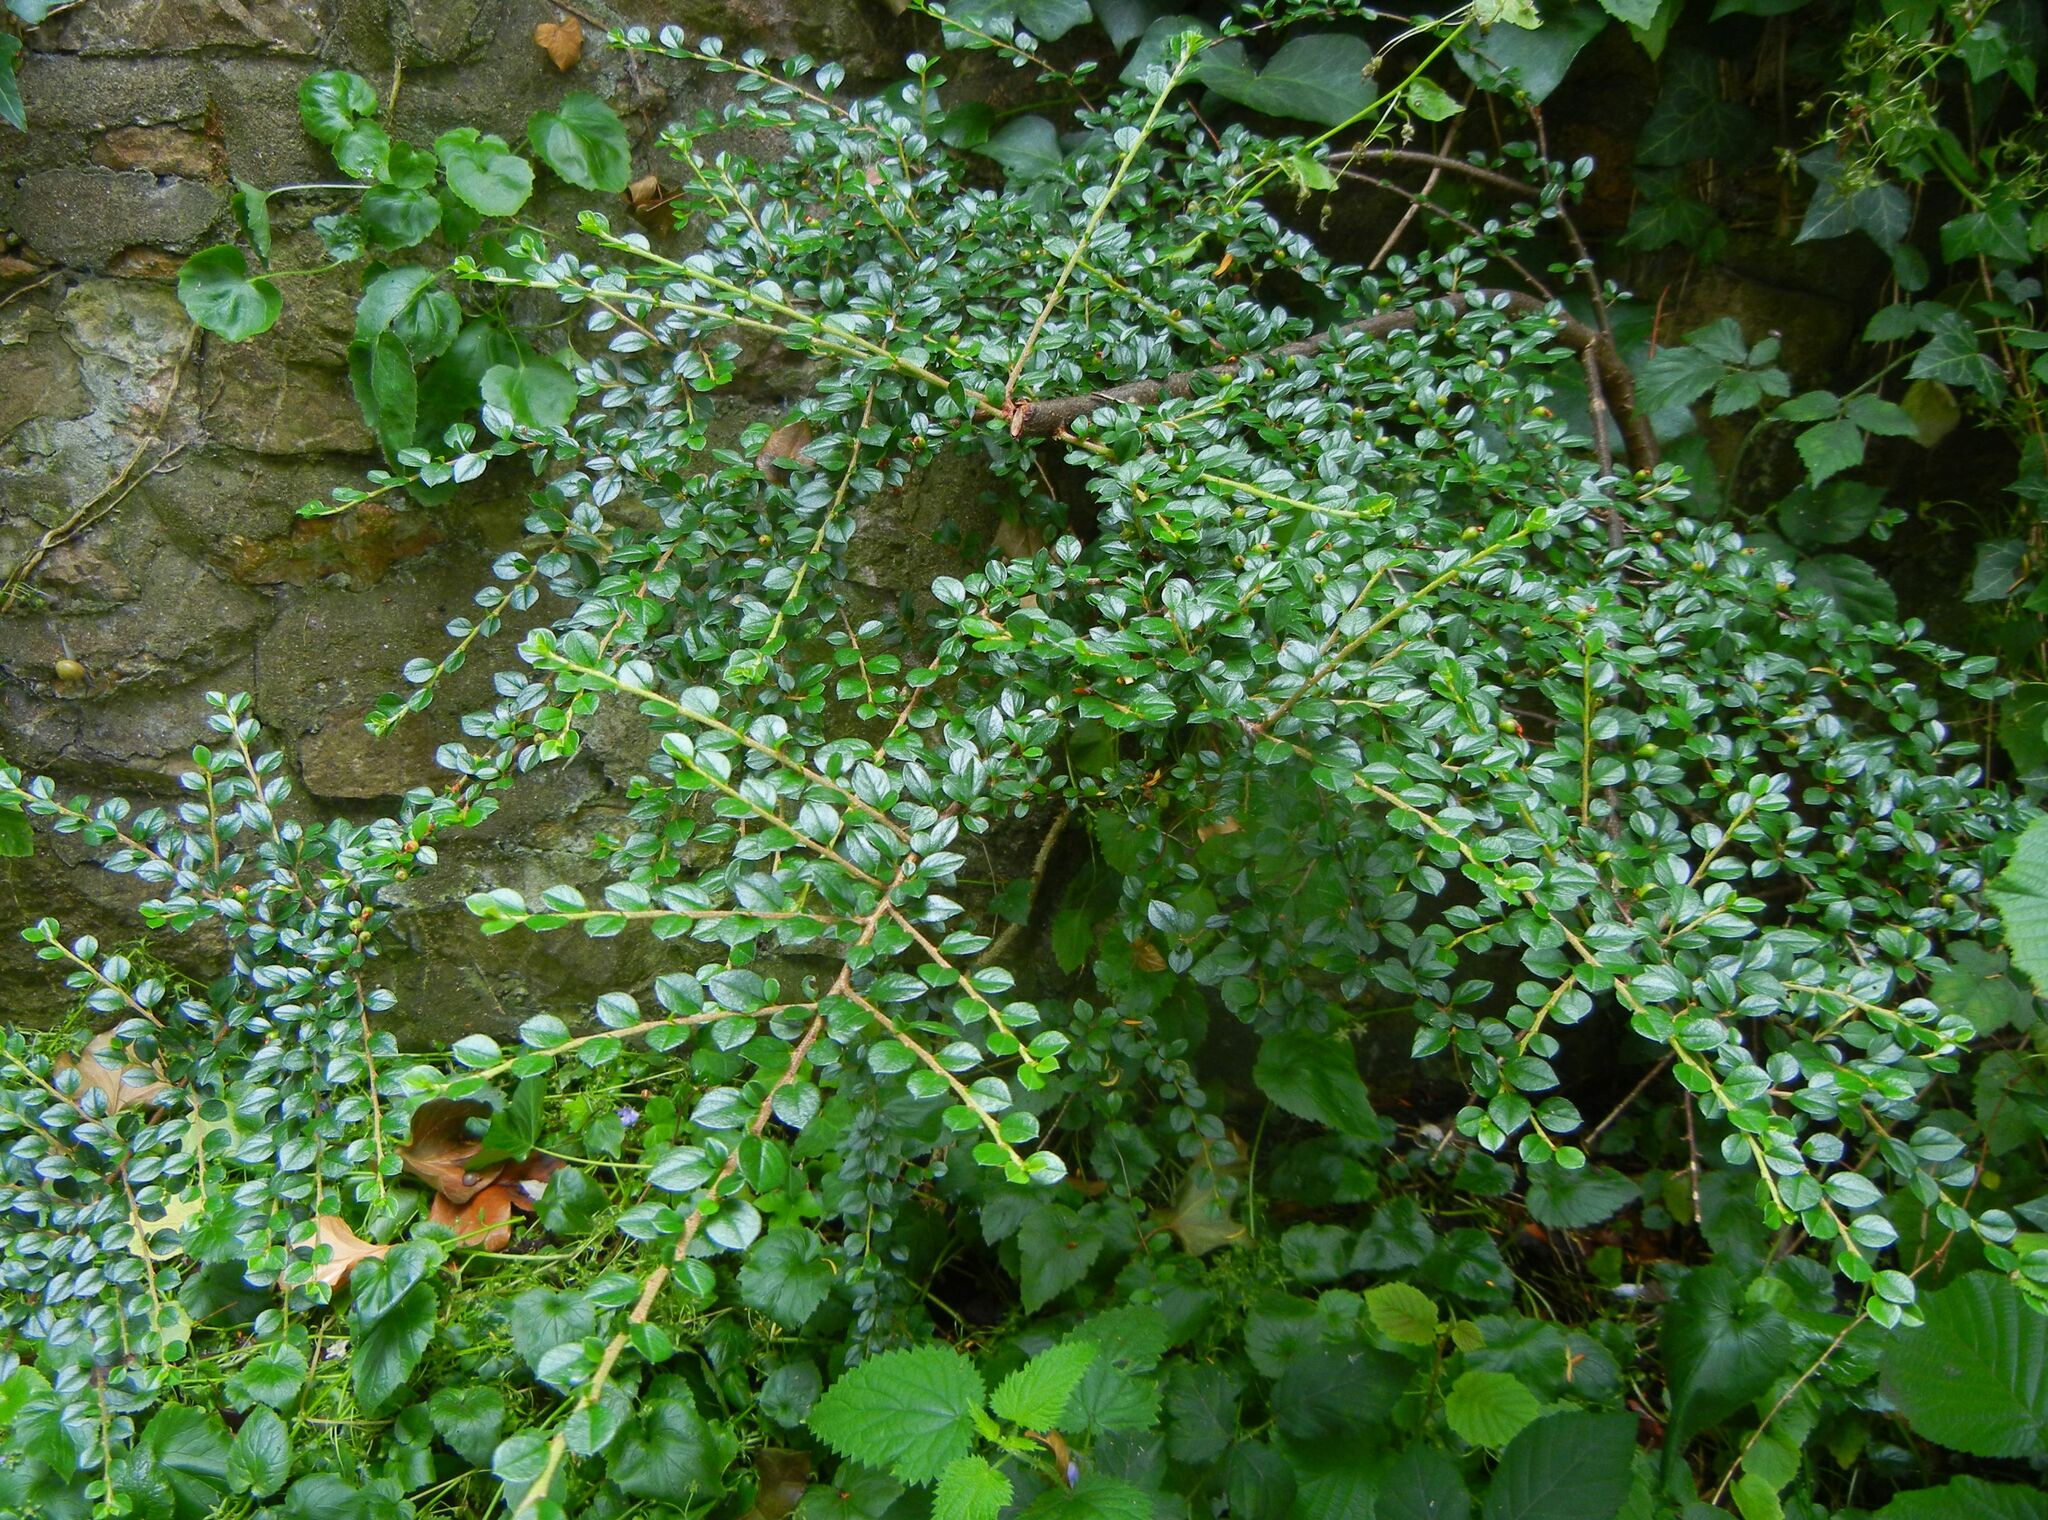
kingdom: Plantae
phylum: Tracheophyta
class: Magnoliopsida
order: Rosales
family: Rosaceae
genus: Cotoneaster
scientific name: Cotoneaster horizontalis
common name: Wall cotoneaster
